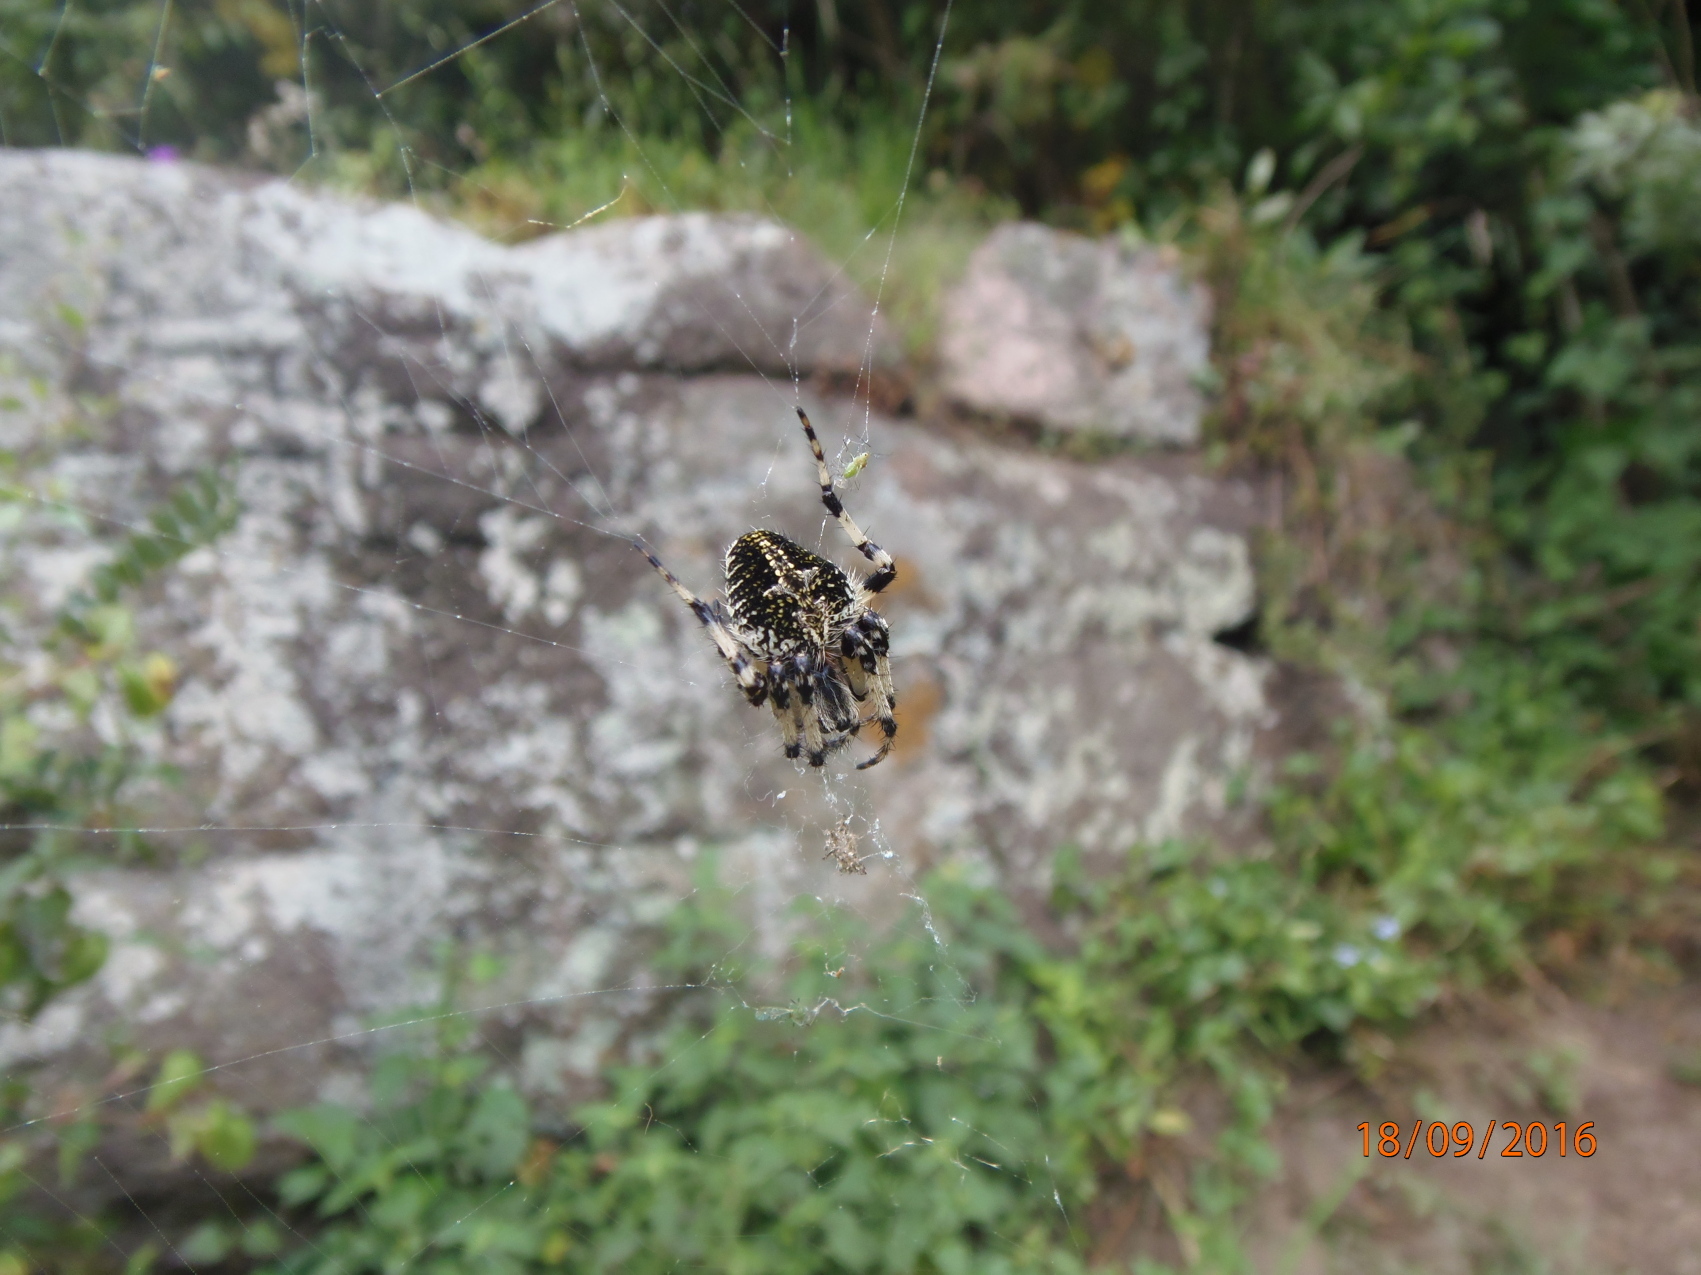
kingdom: Animalia
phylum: Arthropoda
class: Arachnida
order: Araneae
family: Araneidae
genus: Neoscona
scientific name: Neoscona orizabensis
